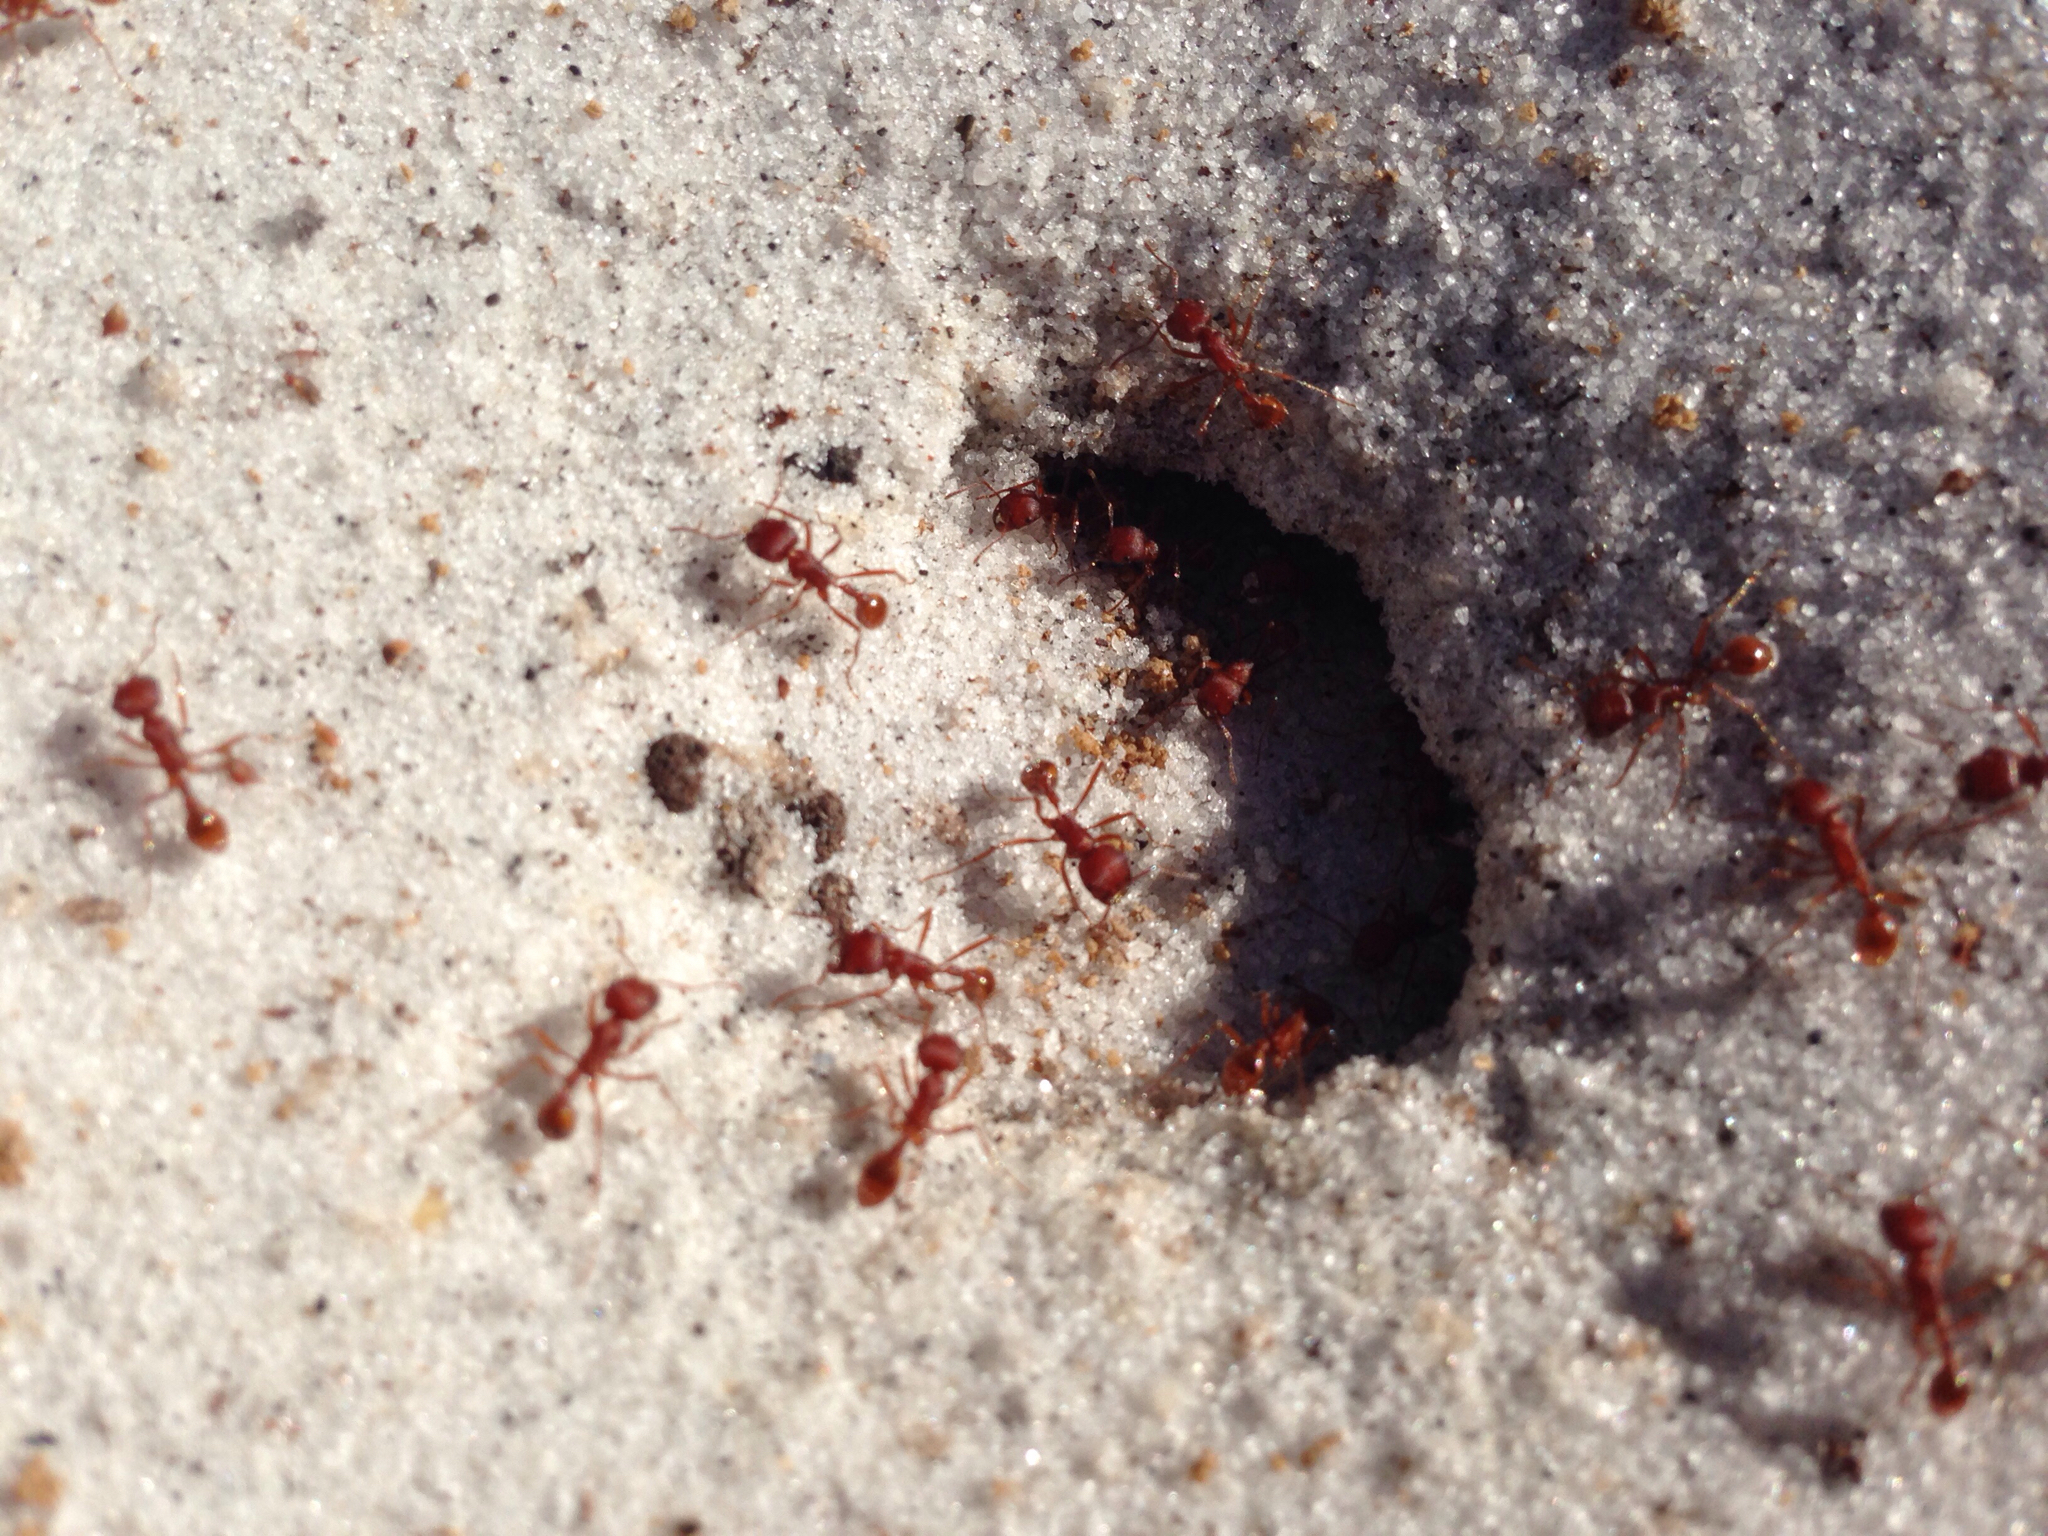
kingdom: Animalia
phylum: Arthropoda
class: Insecta
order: Hymenoptera
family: Formicidae
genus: Pogonomyrmex
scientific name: Pogonomyrmex badius
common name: Florida harvester ant
